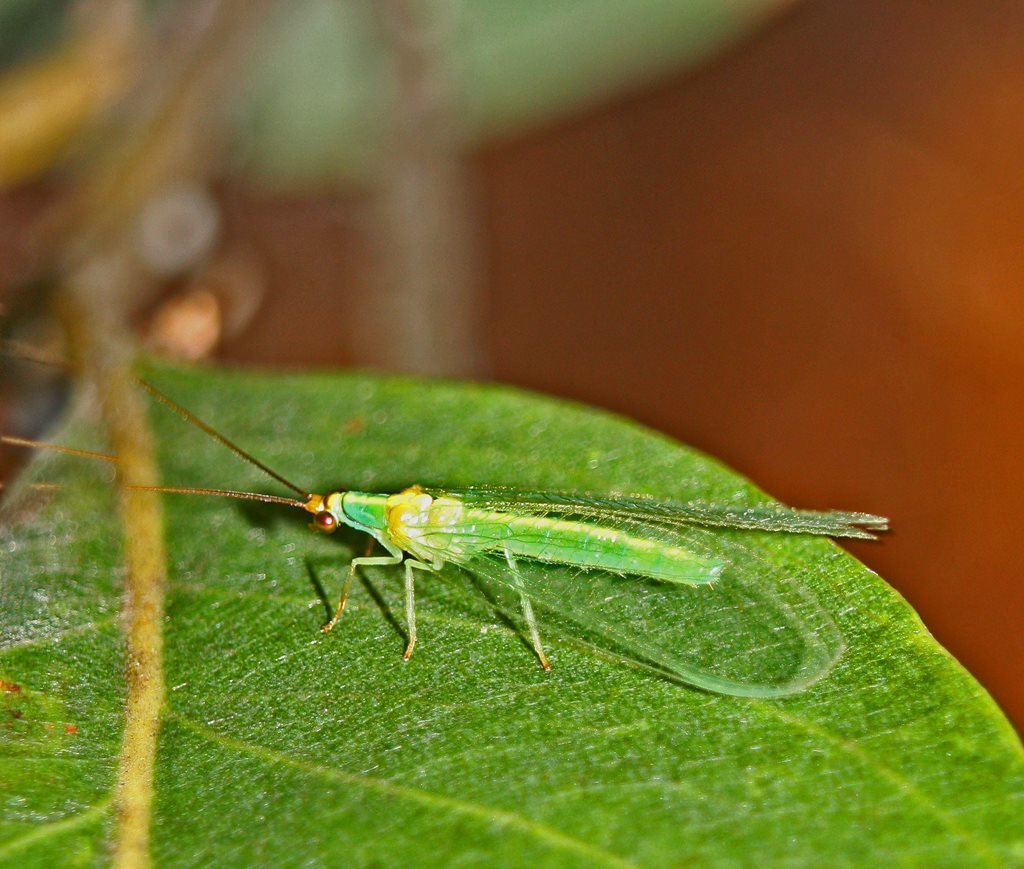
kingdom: Animalia
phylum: Arthropoda
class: Insecta
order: Neuroptera
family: Chrysopidae
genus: Plesiochrysa
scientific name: Plesiochrysa atalotis
